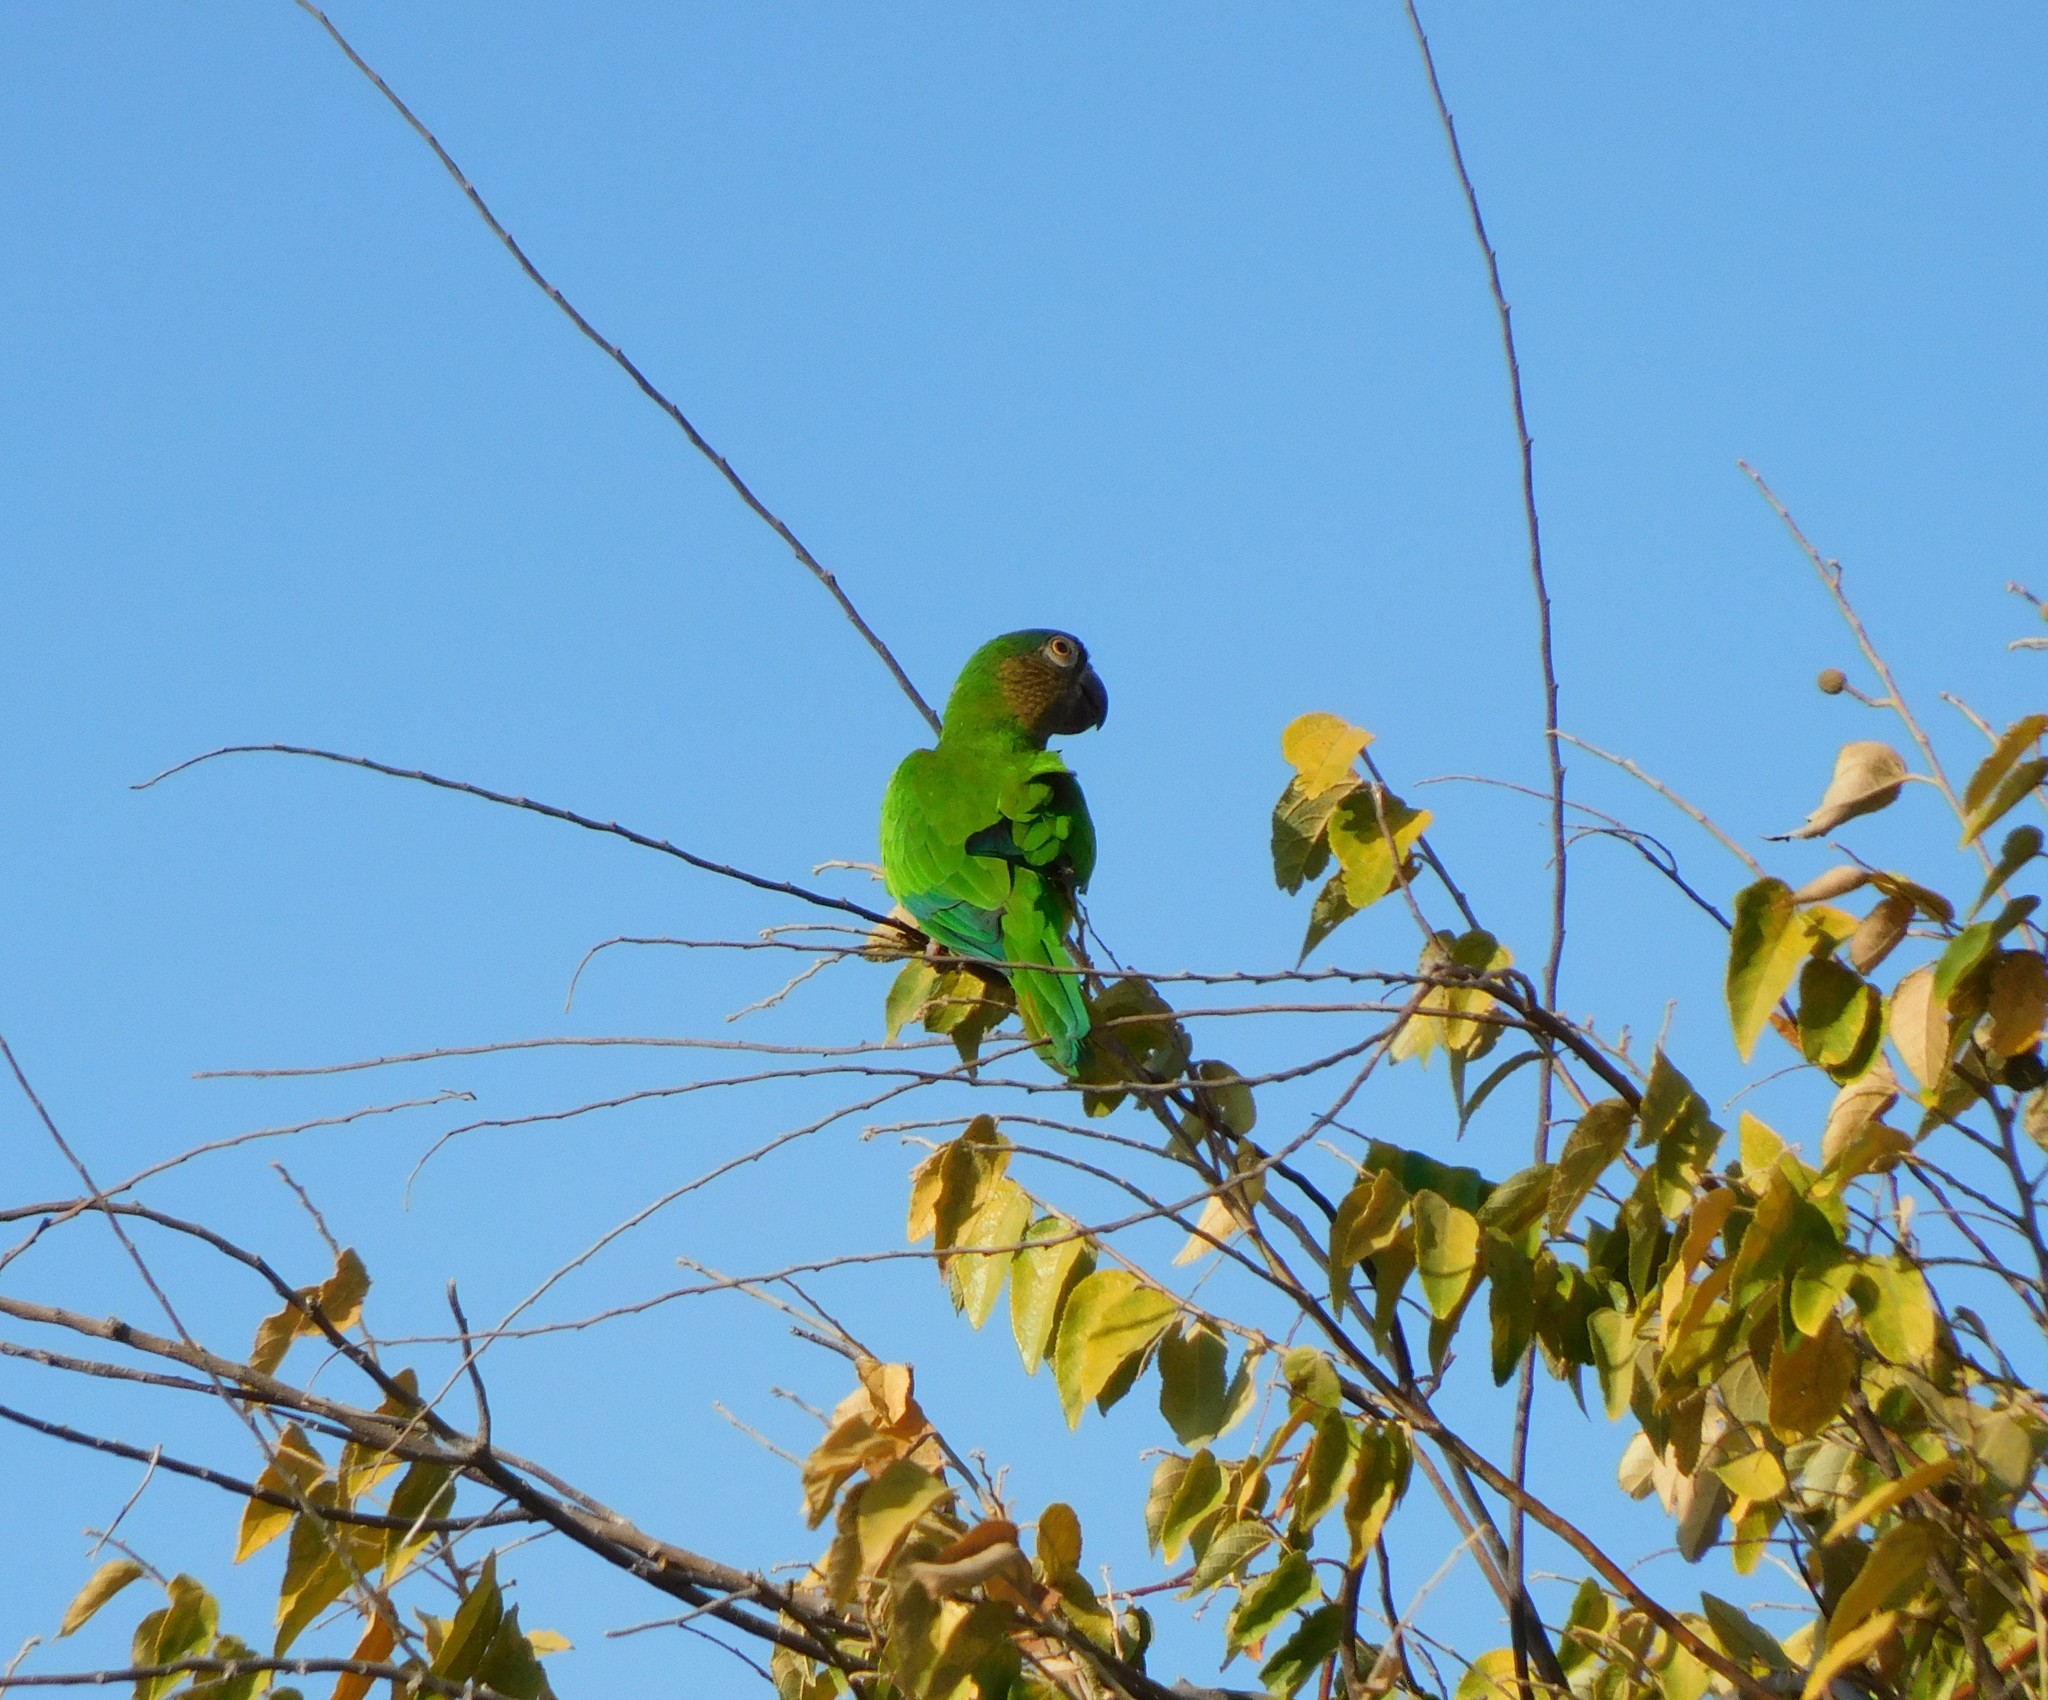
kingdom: Animalia
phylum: Chordata
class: Aves
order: Psittaciformes
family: Psittacidae
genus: Aratinga
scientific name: Aratinga pertinax
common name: Brown-throated parakeet
